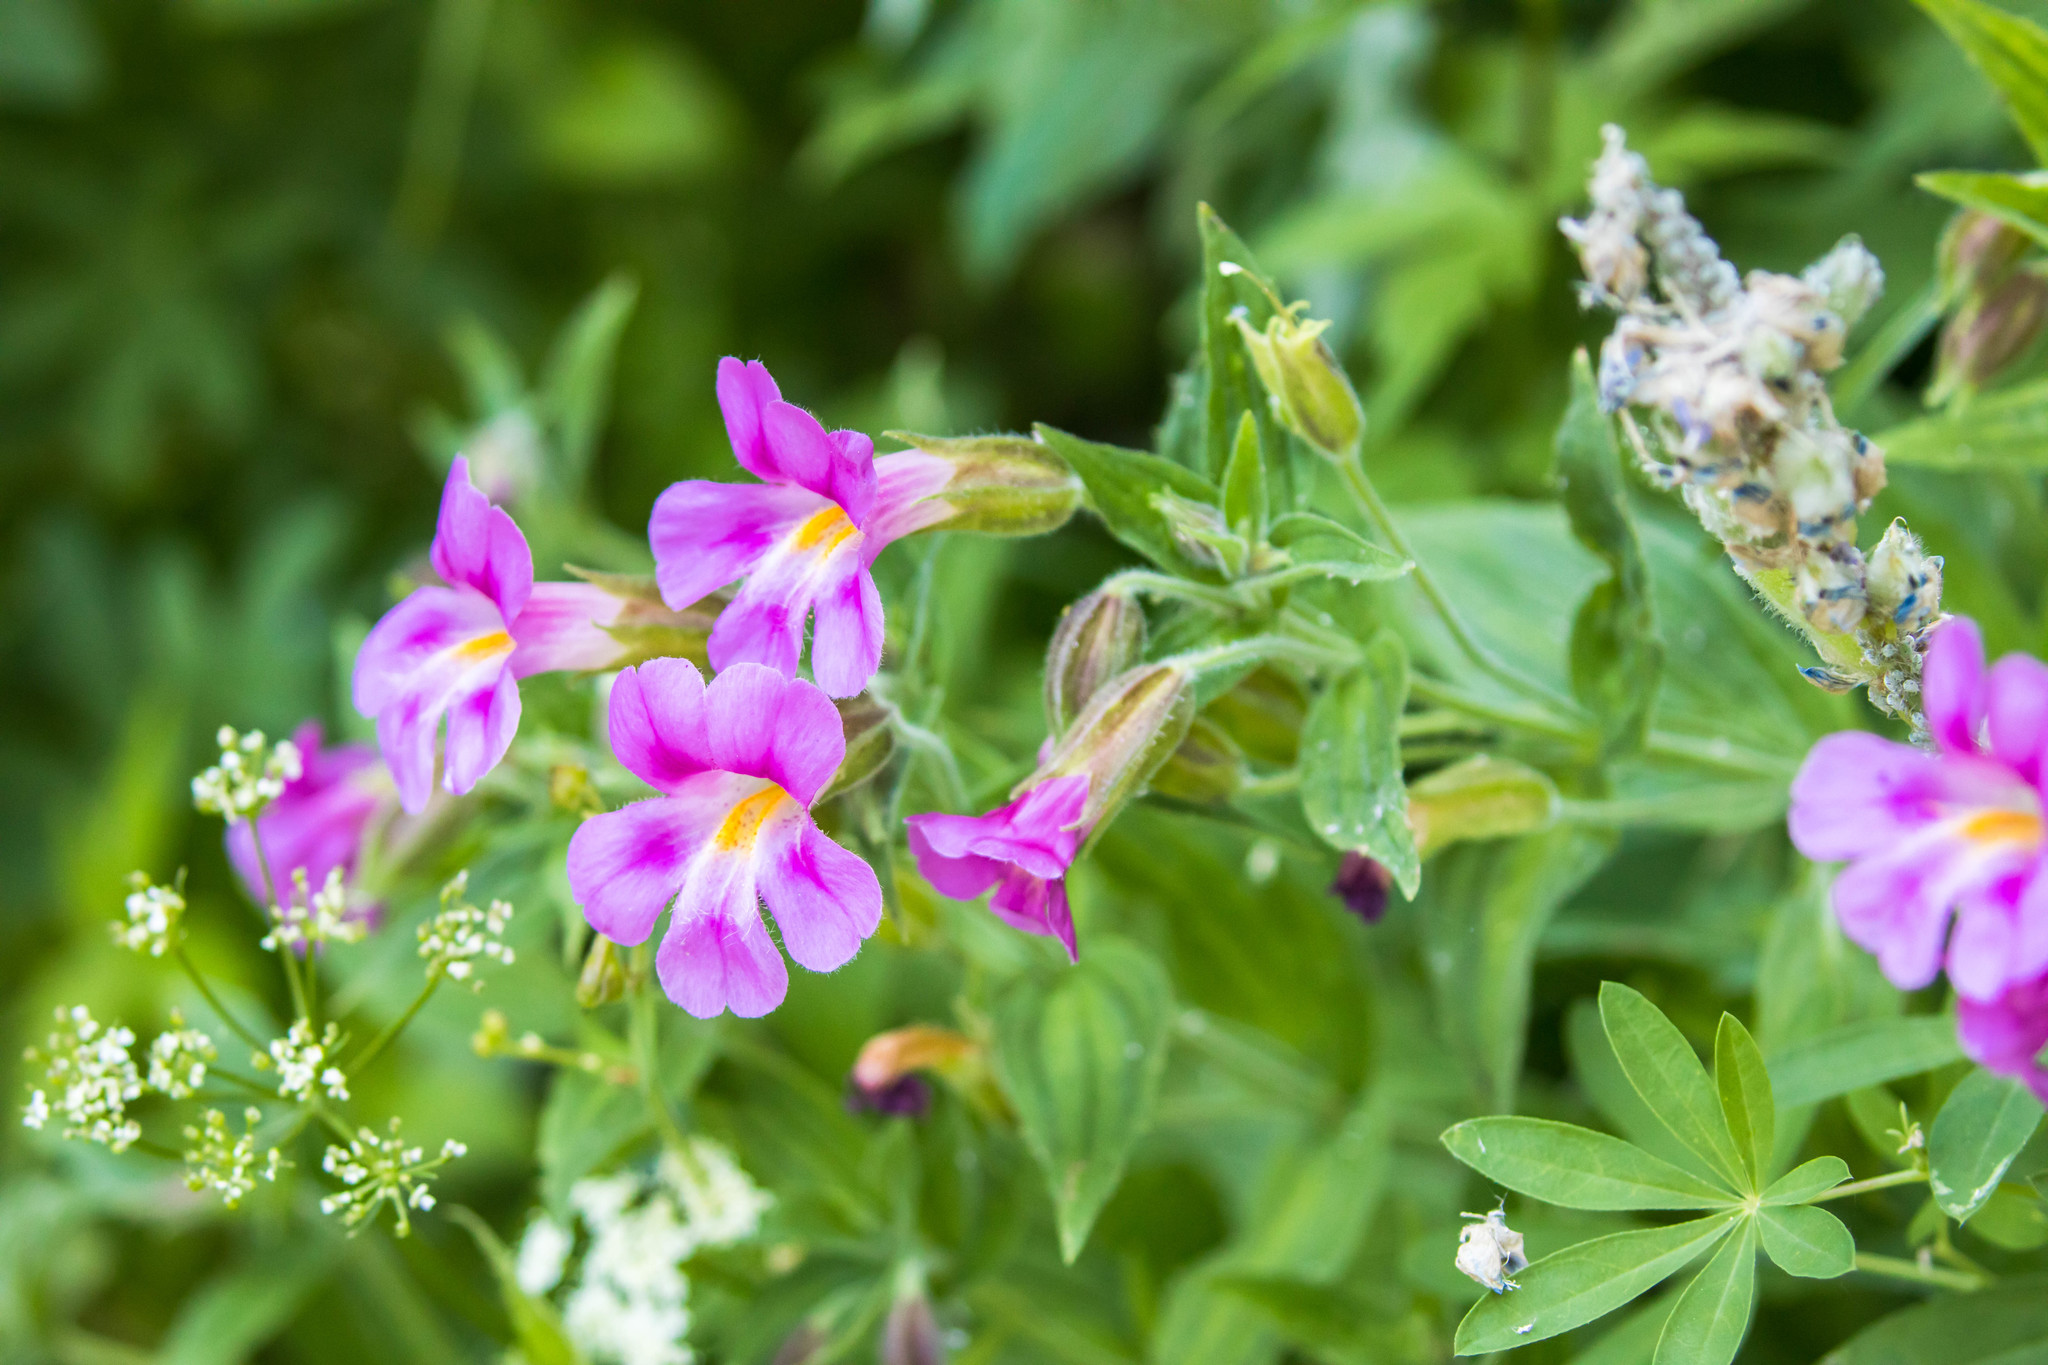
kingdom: Plantae
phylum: Tracheophyta
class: Magnoliopsida
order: Lamiales
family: Phrymaceae
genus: Erythranthe
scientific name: Erythranthe lewisii
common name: Lewis's monkey-flower
